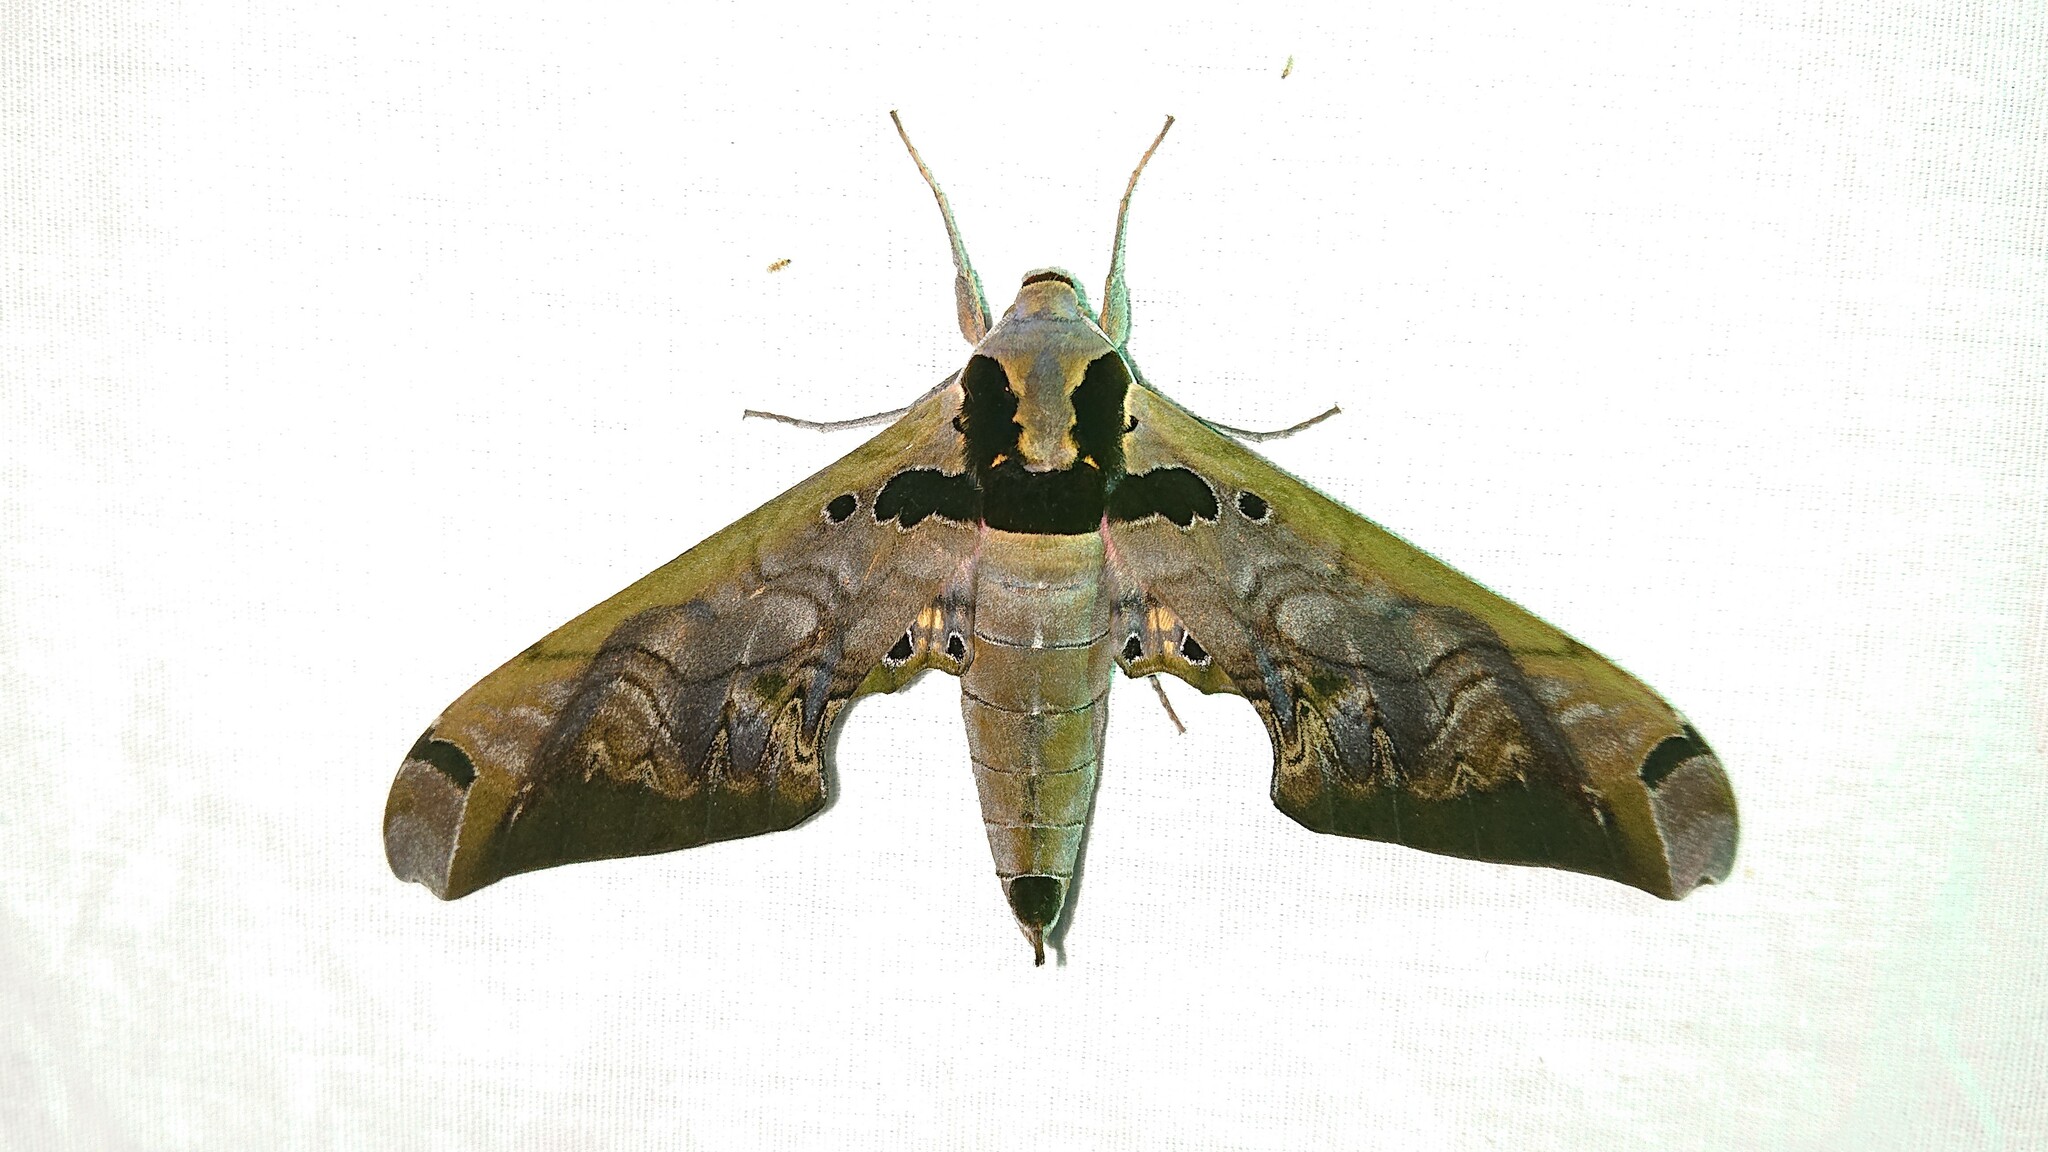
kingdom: Animalia
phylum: Arthropoda
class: Insecta
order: Lepidoptera
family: Sphingidae
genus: Adhemarius
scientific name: Adhemarius sexoculata
